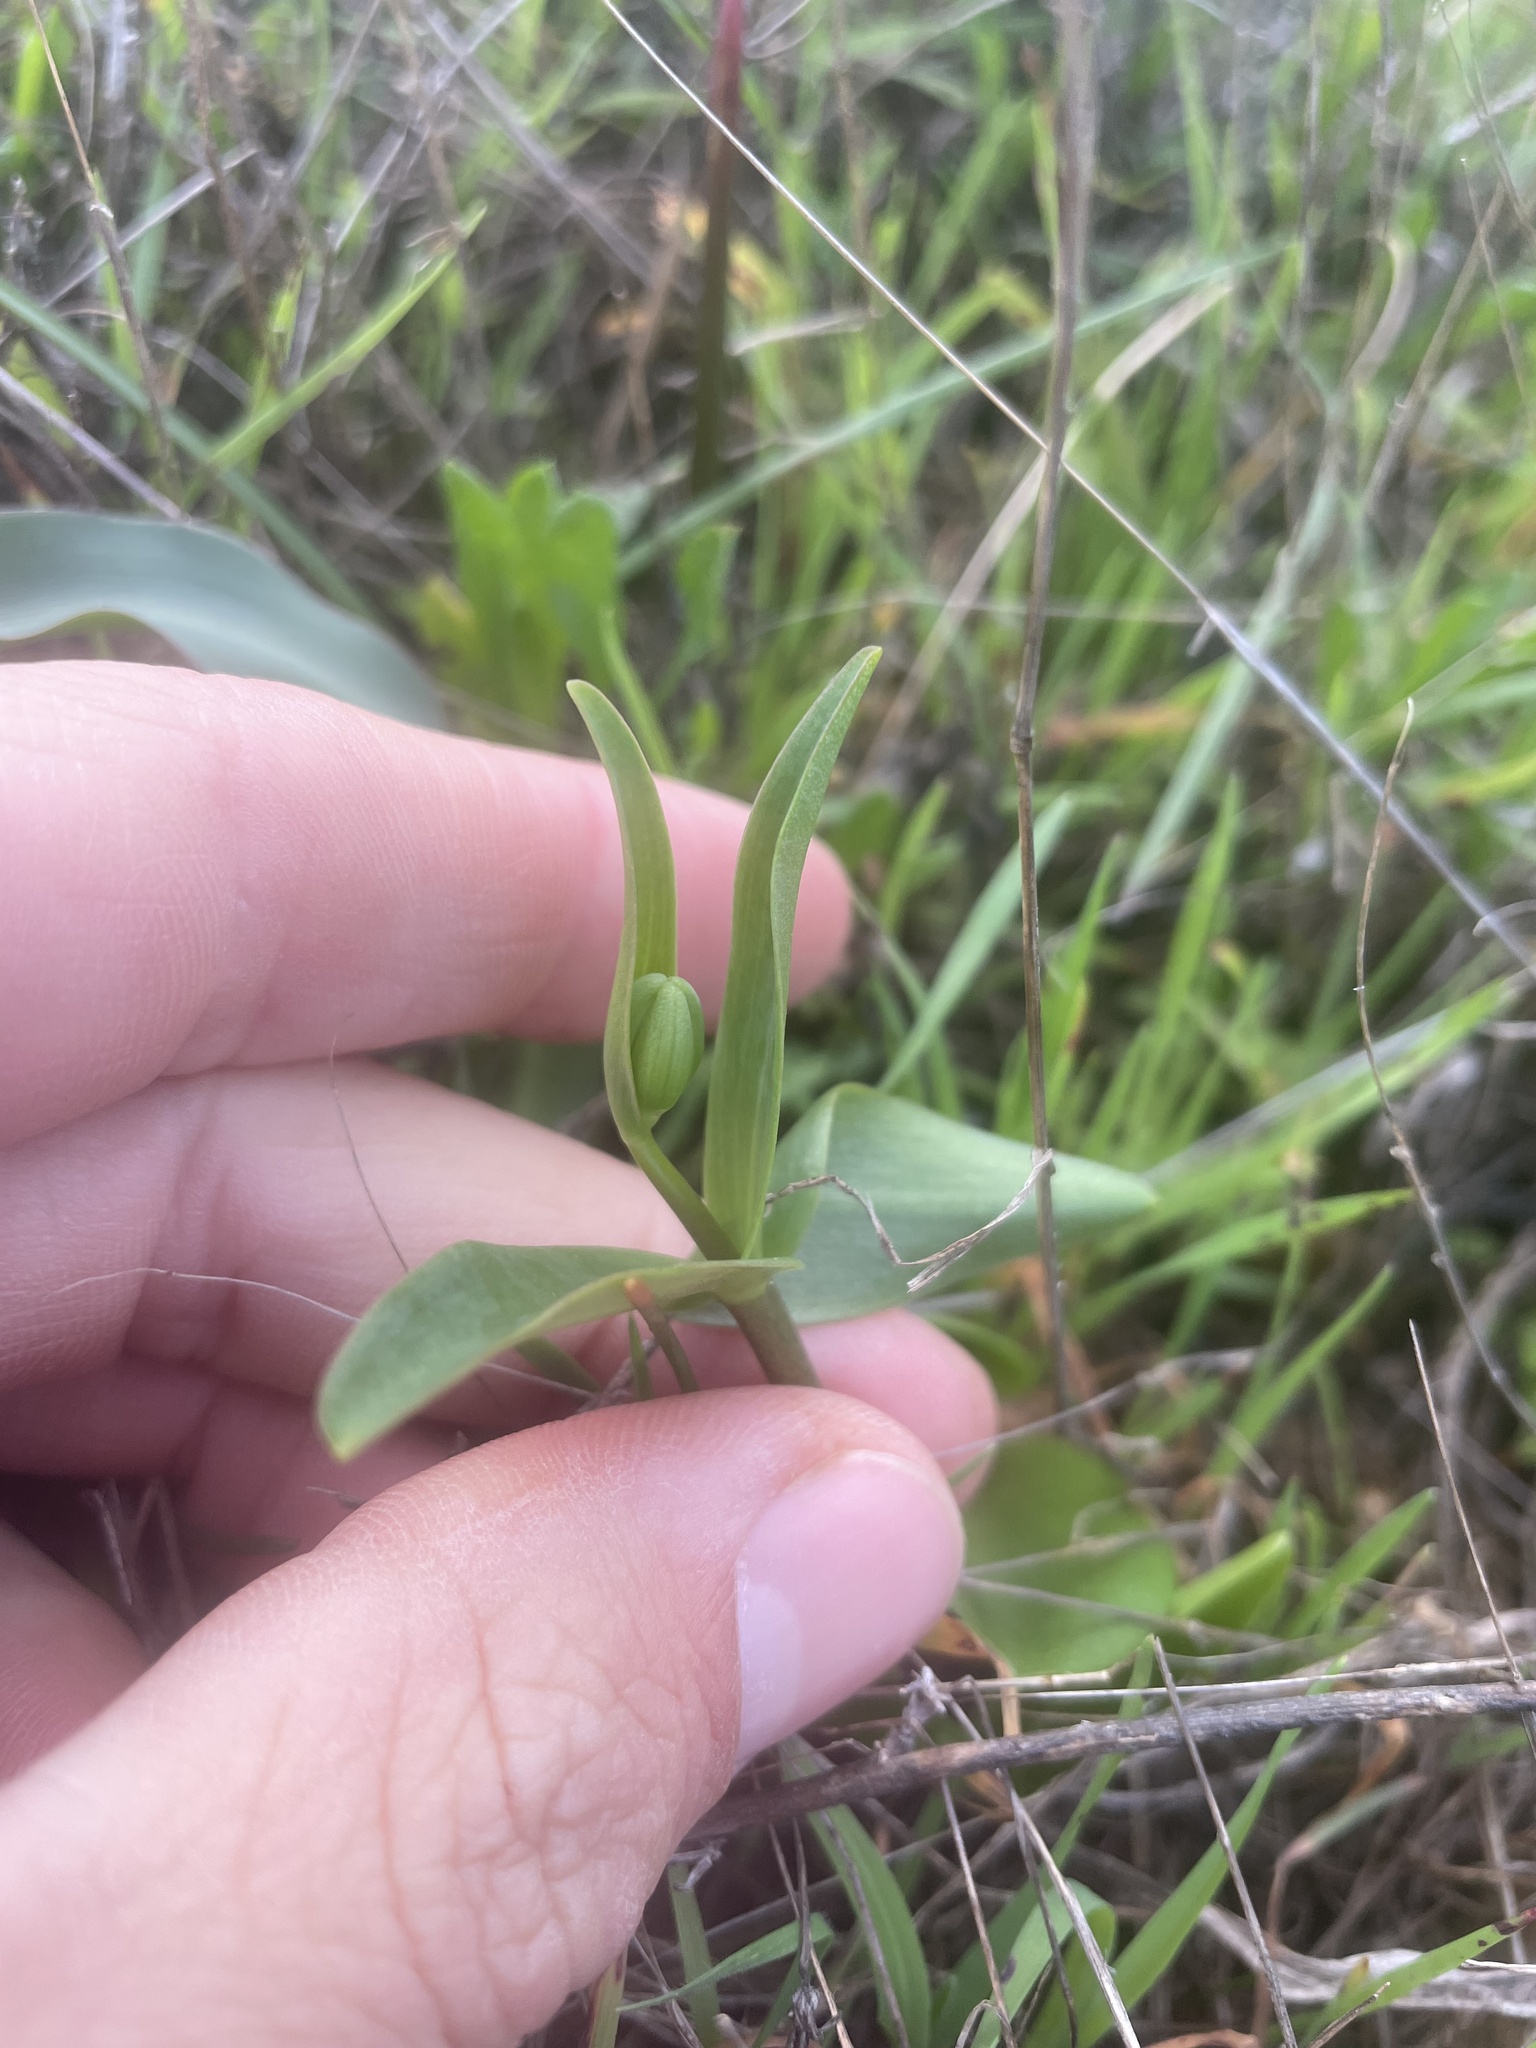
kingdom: Plantae
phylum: Tracheophyta
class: Liliopsida
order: Liliales
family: Liliaceae
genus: Fritillaria
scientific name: Fritillaria affinis
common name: Ojai fritillary
